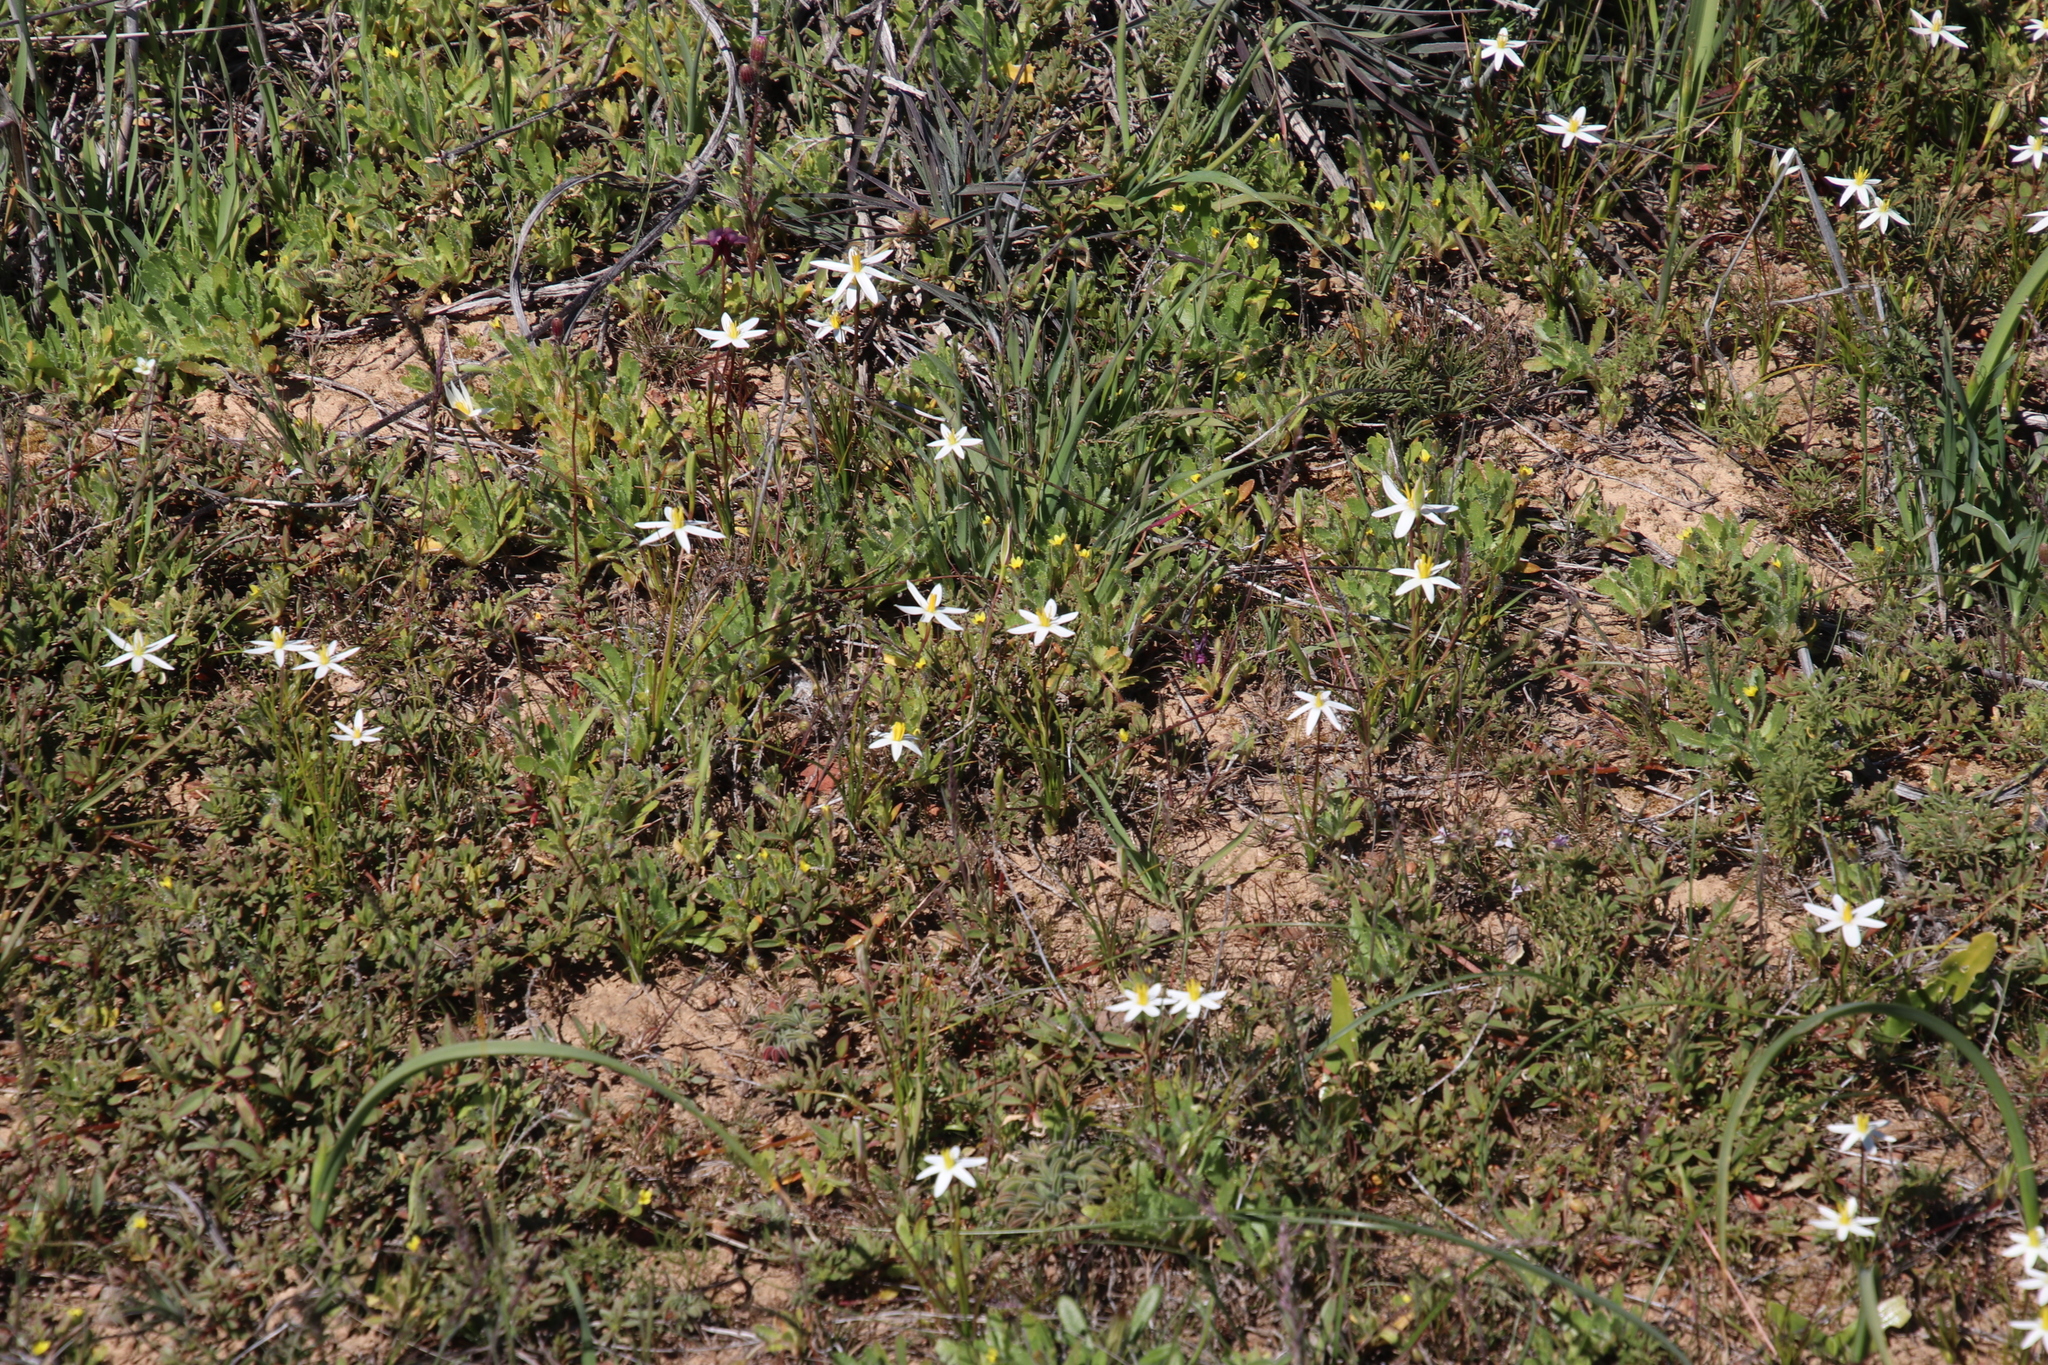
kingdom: Plantae
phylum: Tracheophyta
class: Liliopsida
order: Asparagales
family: Hypoxidaceae
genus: Pauridia
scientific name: Pauridia serrata
